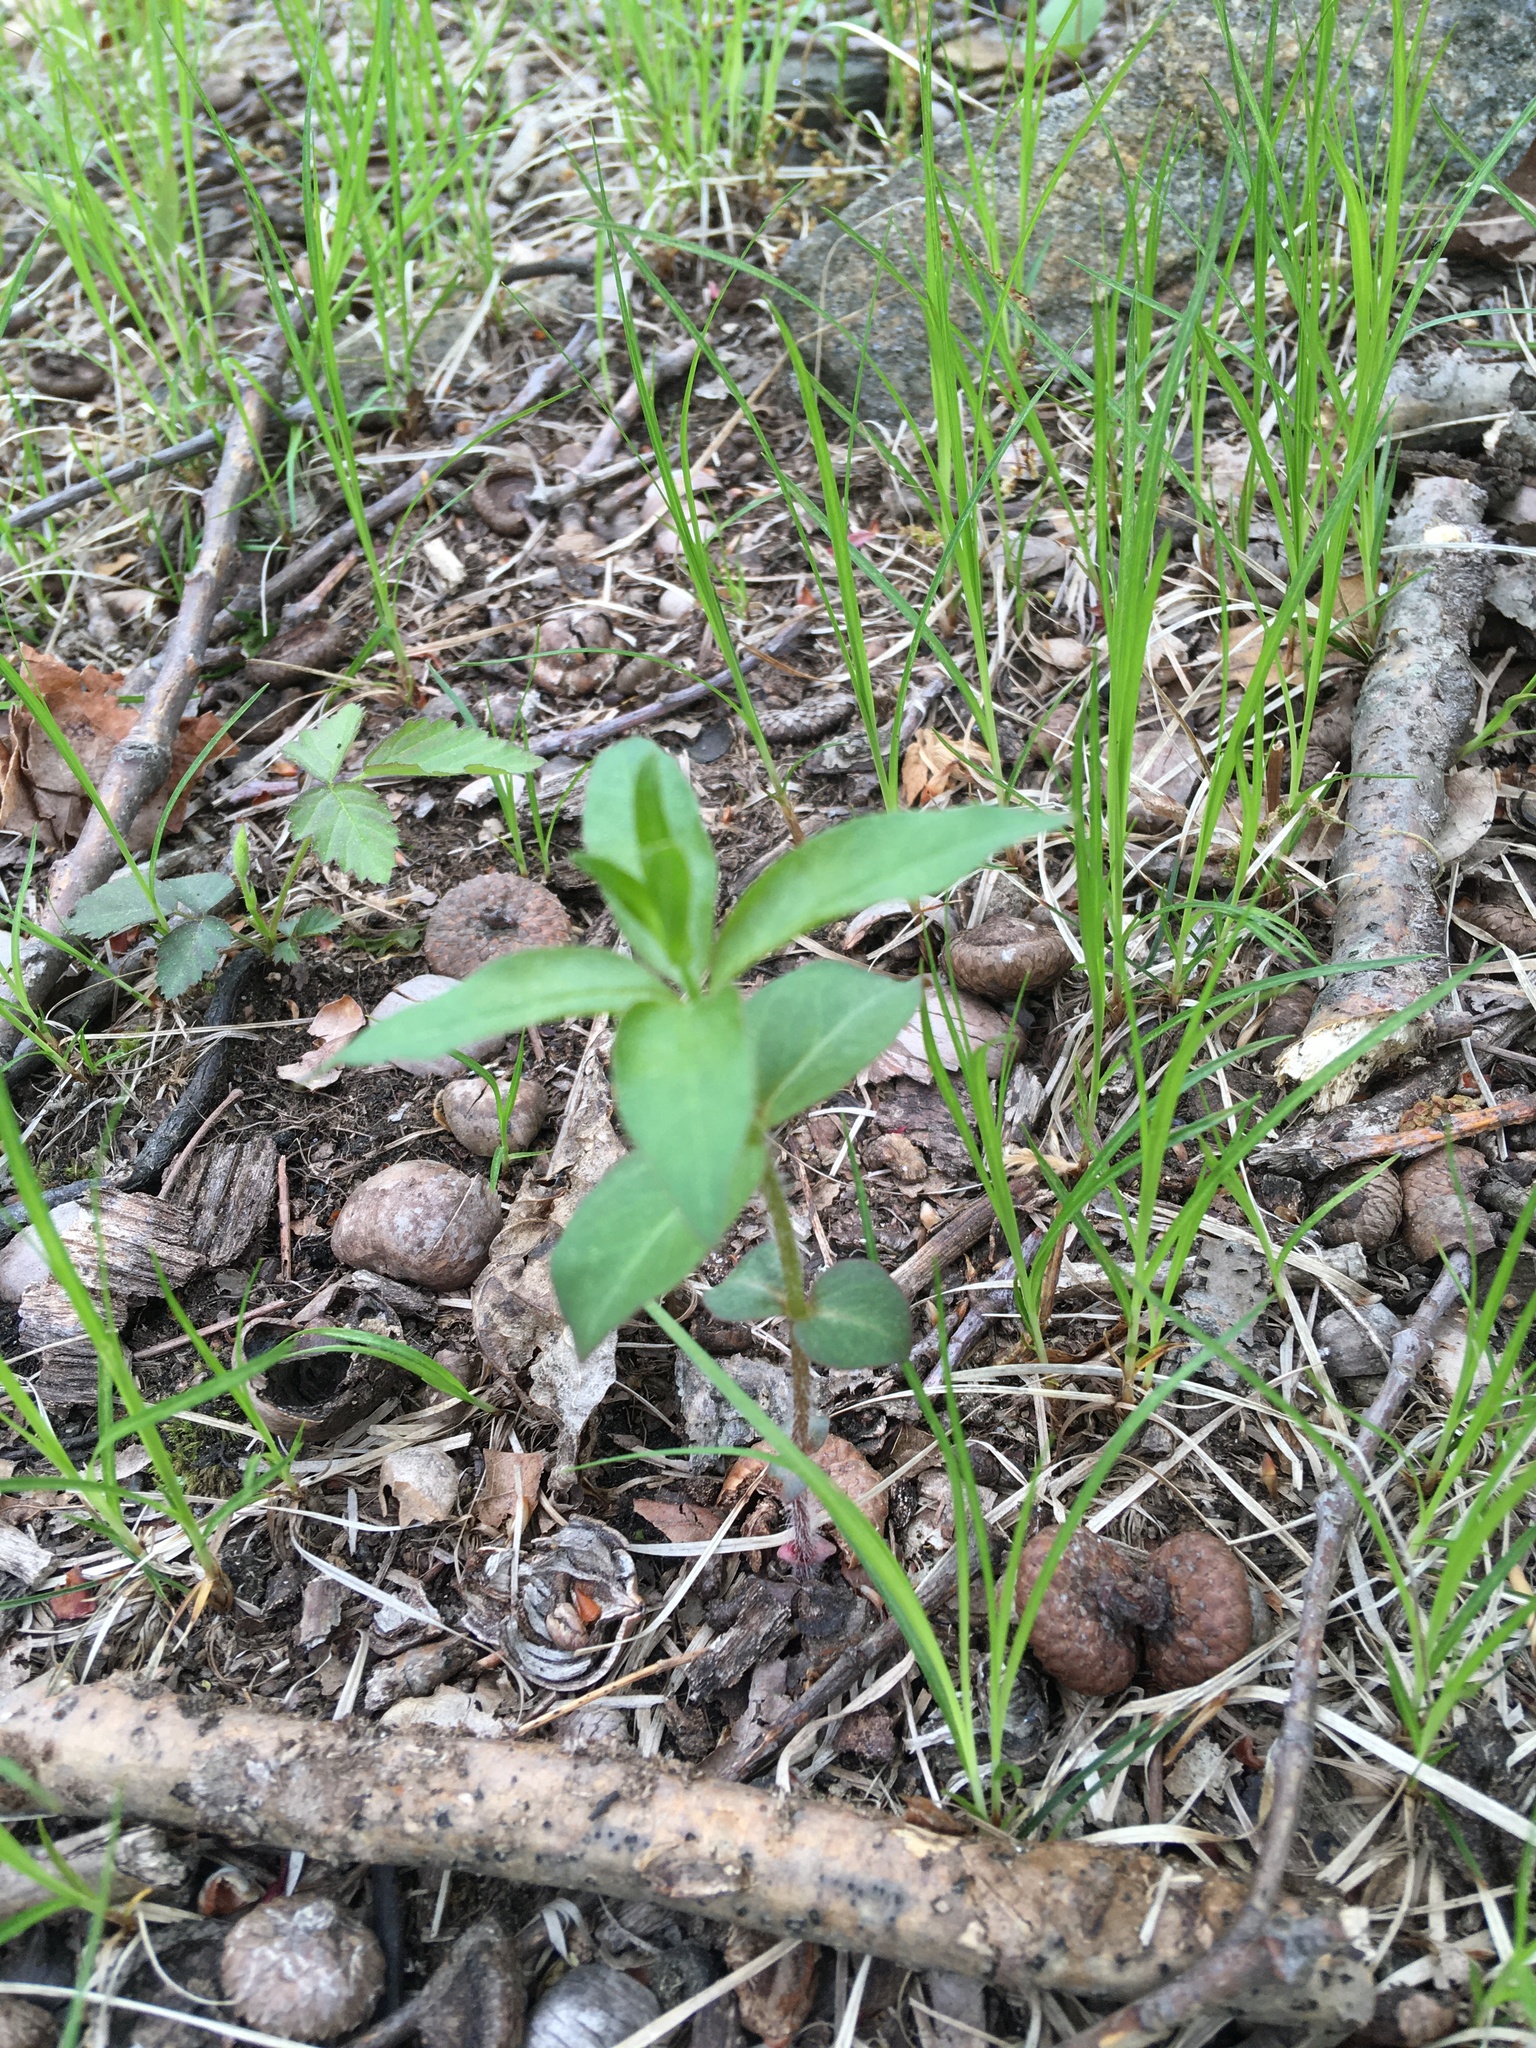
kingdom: Plantae
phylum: Tracheophyta
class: Magnoliopsida
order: Ericales
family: Primulaceae
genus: Lysimachia
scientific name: Lysimachia quadrifolia
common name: Whorled loosestrife
